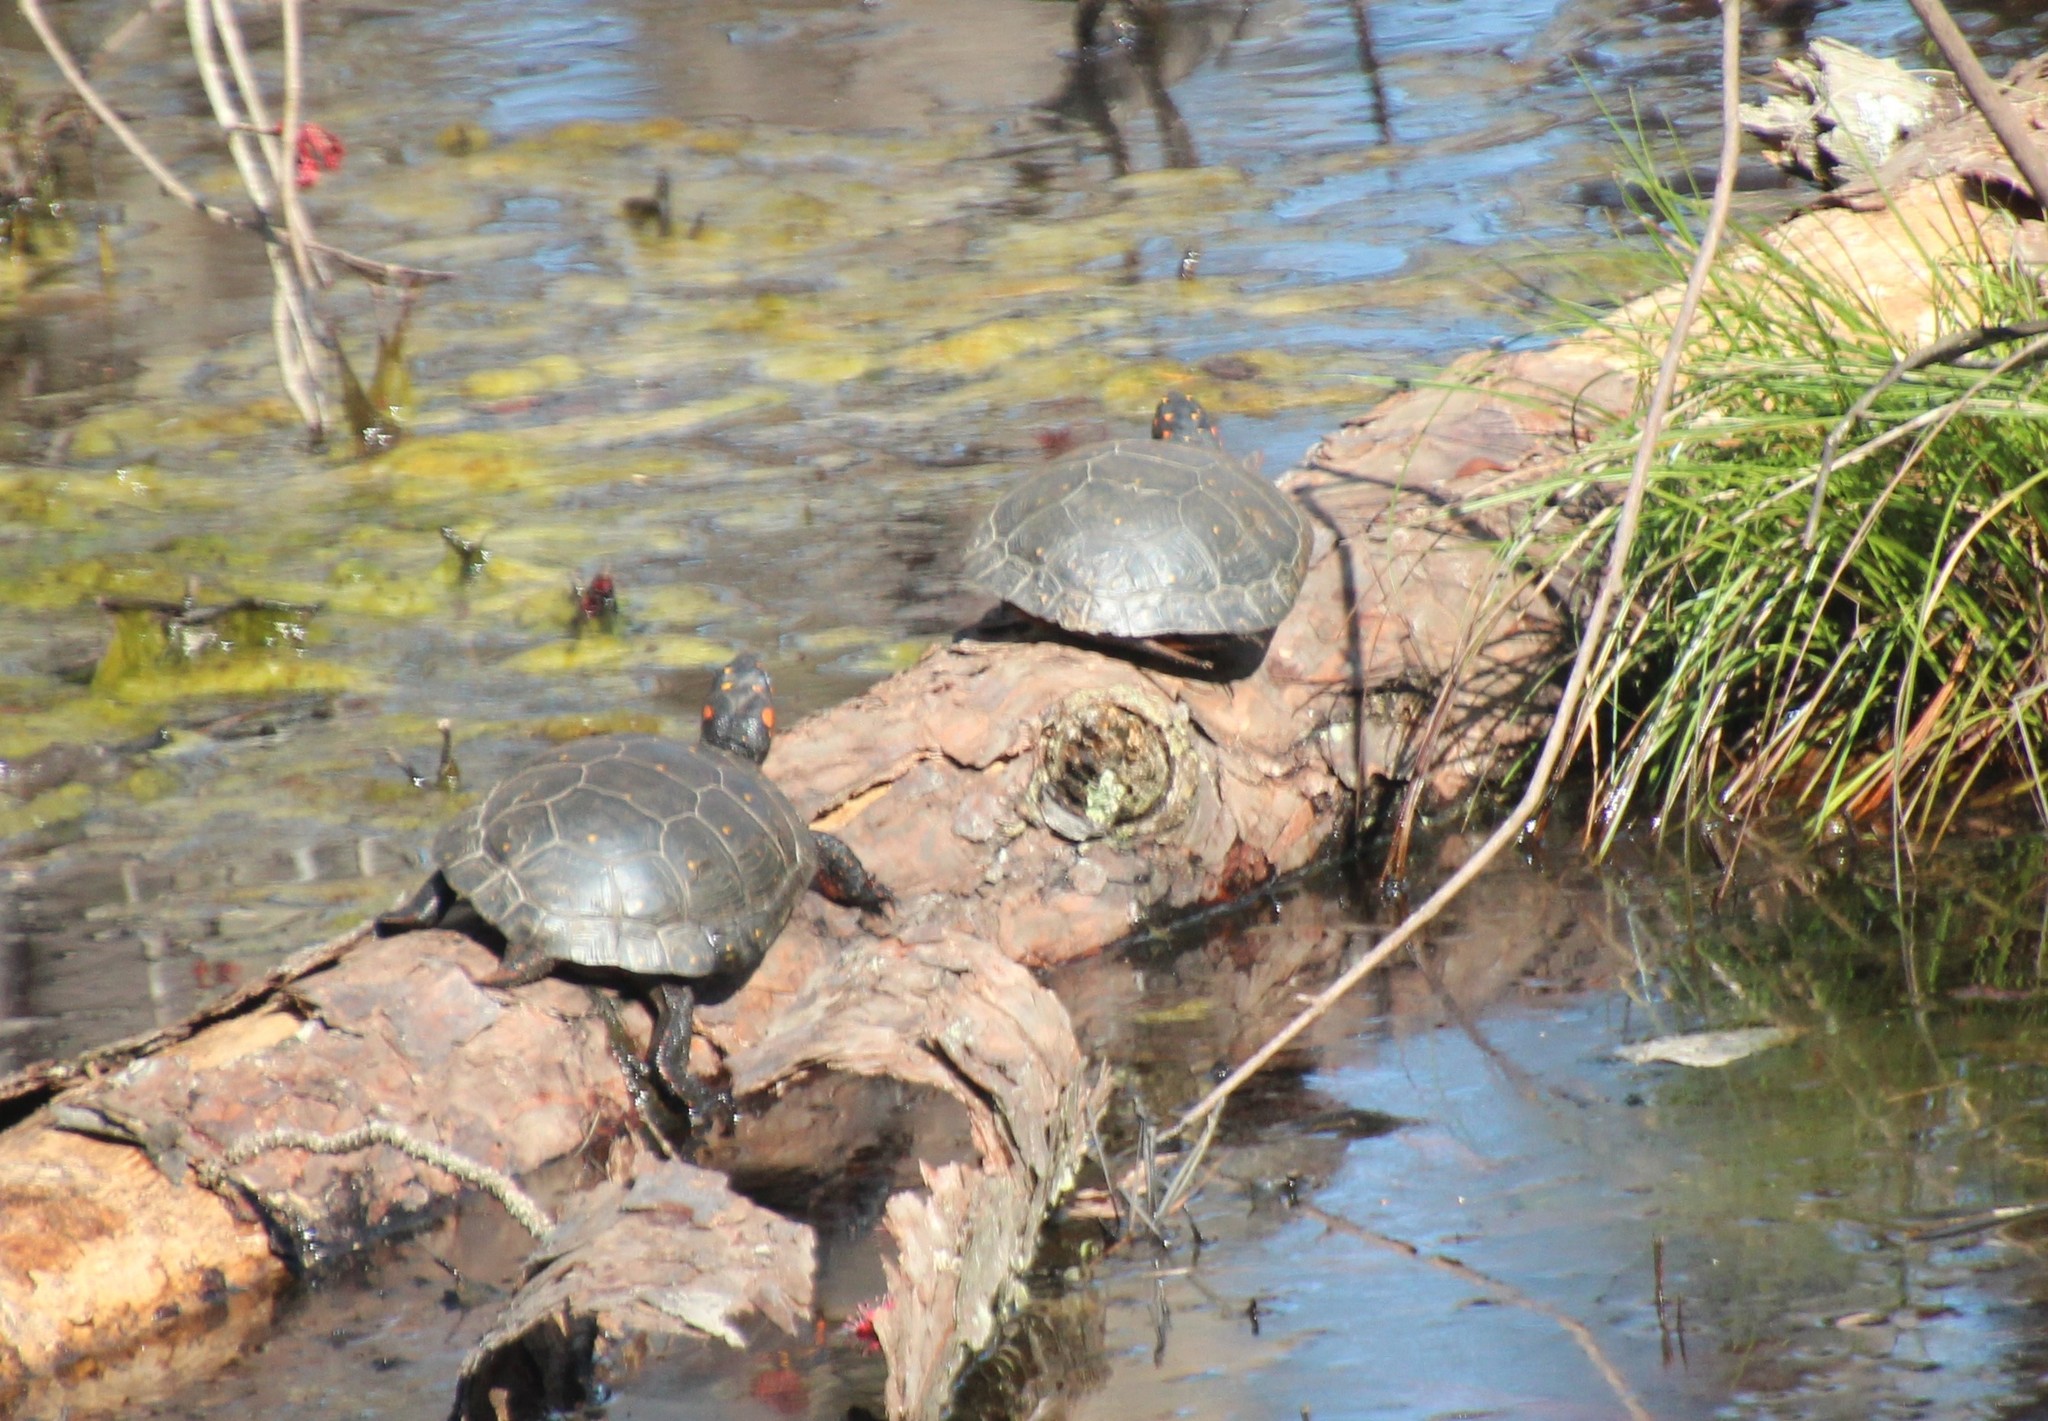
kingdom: Animalia
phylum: Chordata
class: Testudines
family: Emydidae
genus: Clemmys
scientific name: Clemmys guttata
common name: Spotted turtle
